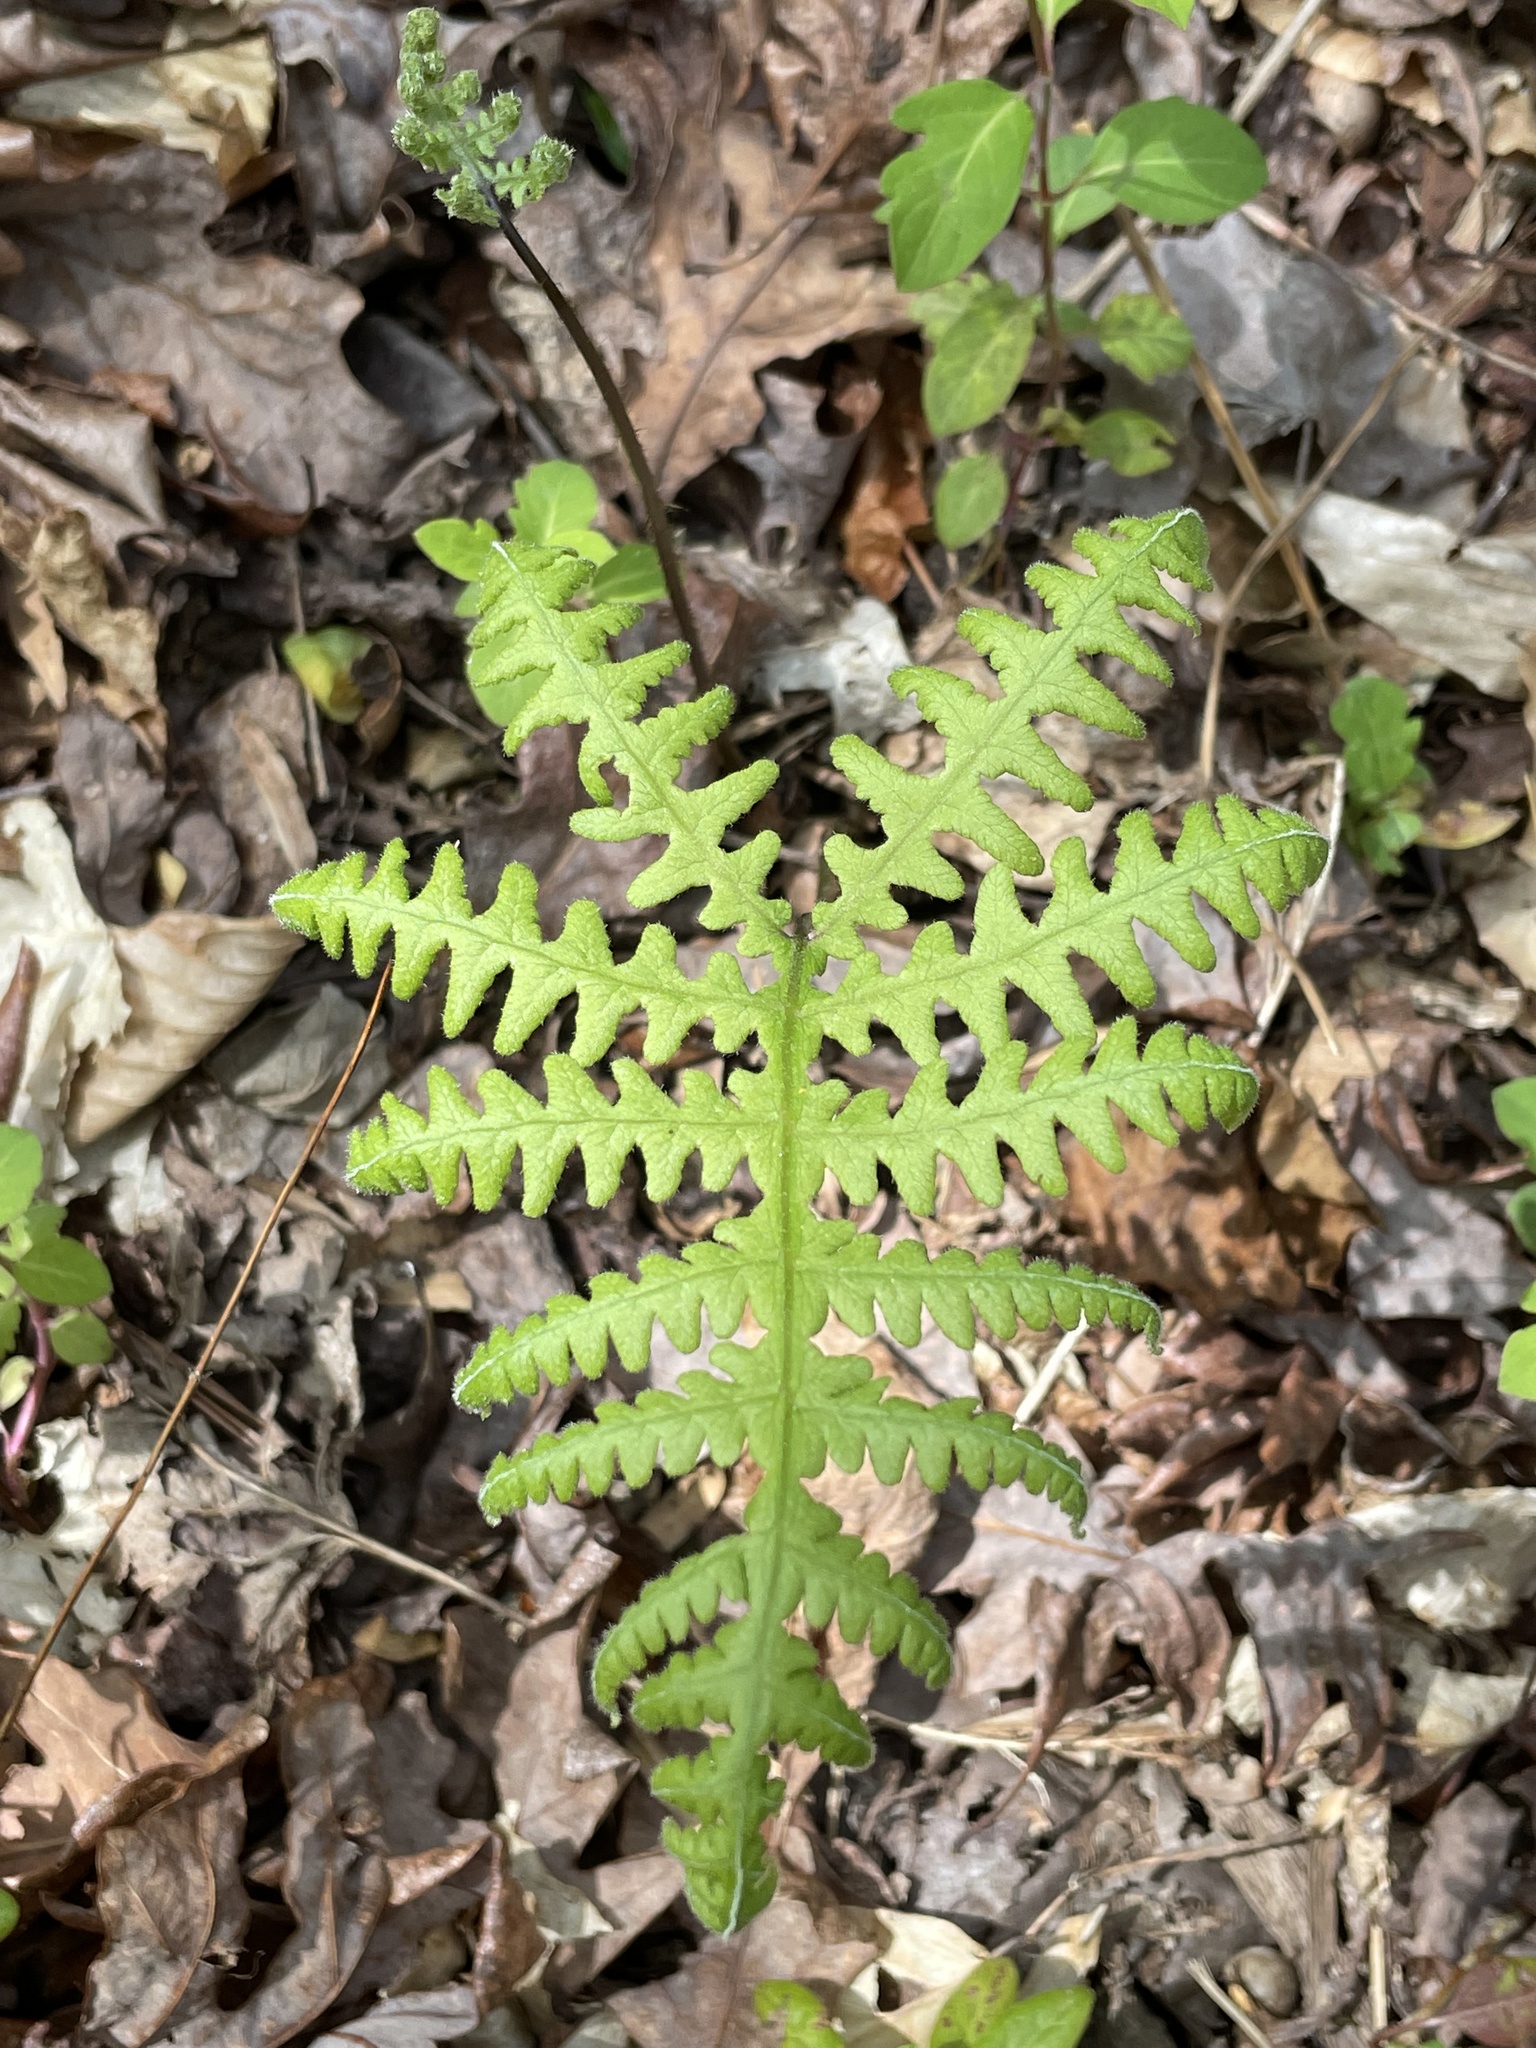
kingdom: Plantae
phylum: Tracheophyta
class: Polypodiopsida
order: Polypodiales
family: Thelypteridaceae
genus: Phegopteris
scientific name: Phegopteris hexagonoptera
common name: Broad beech fern
